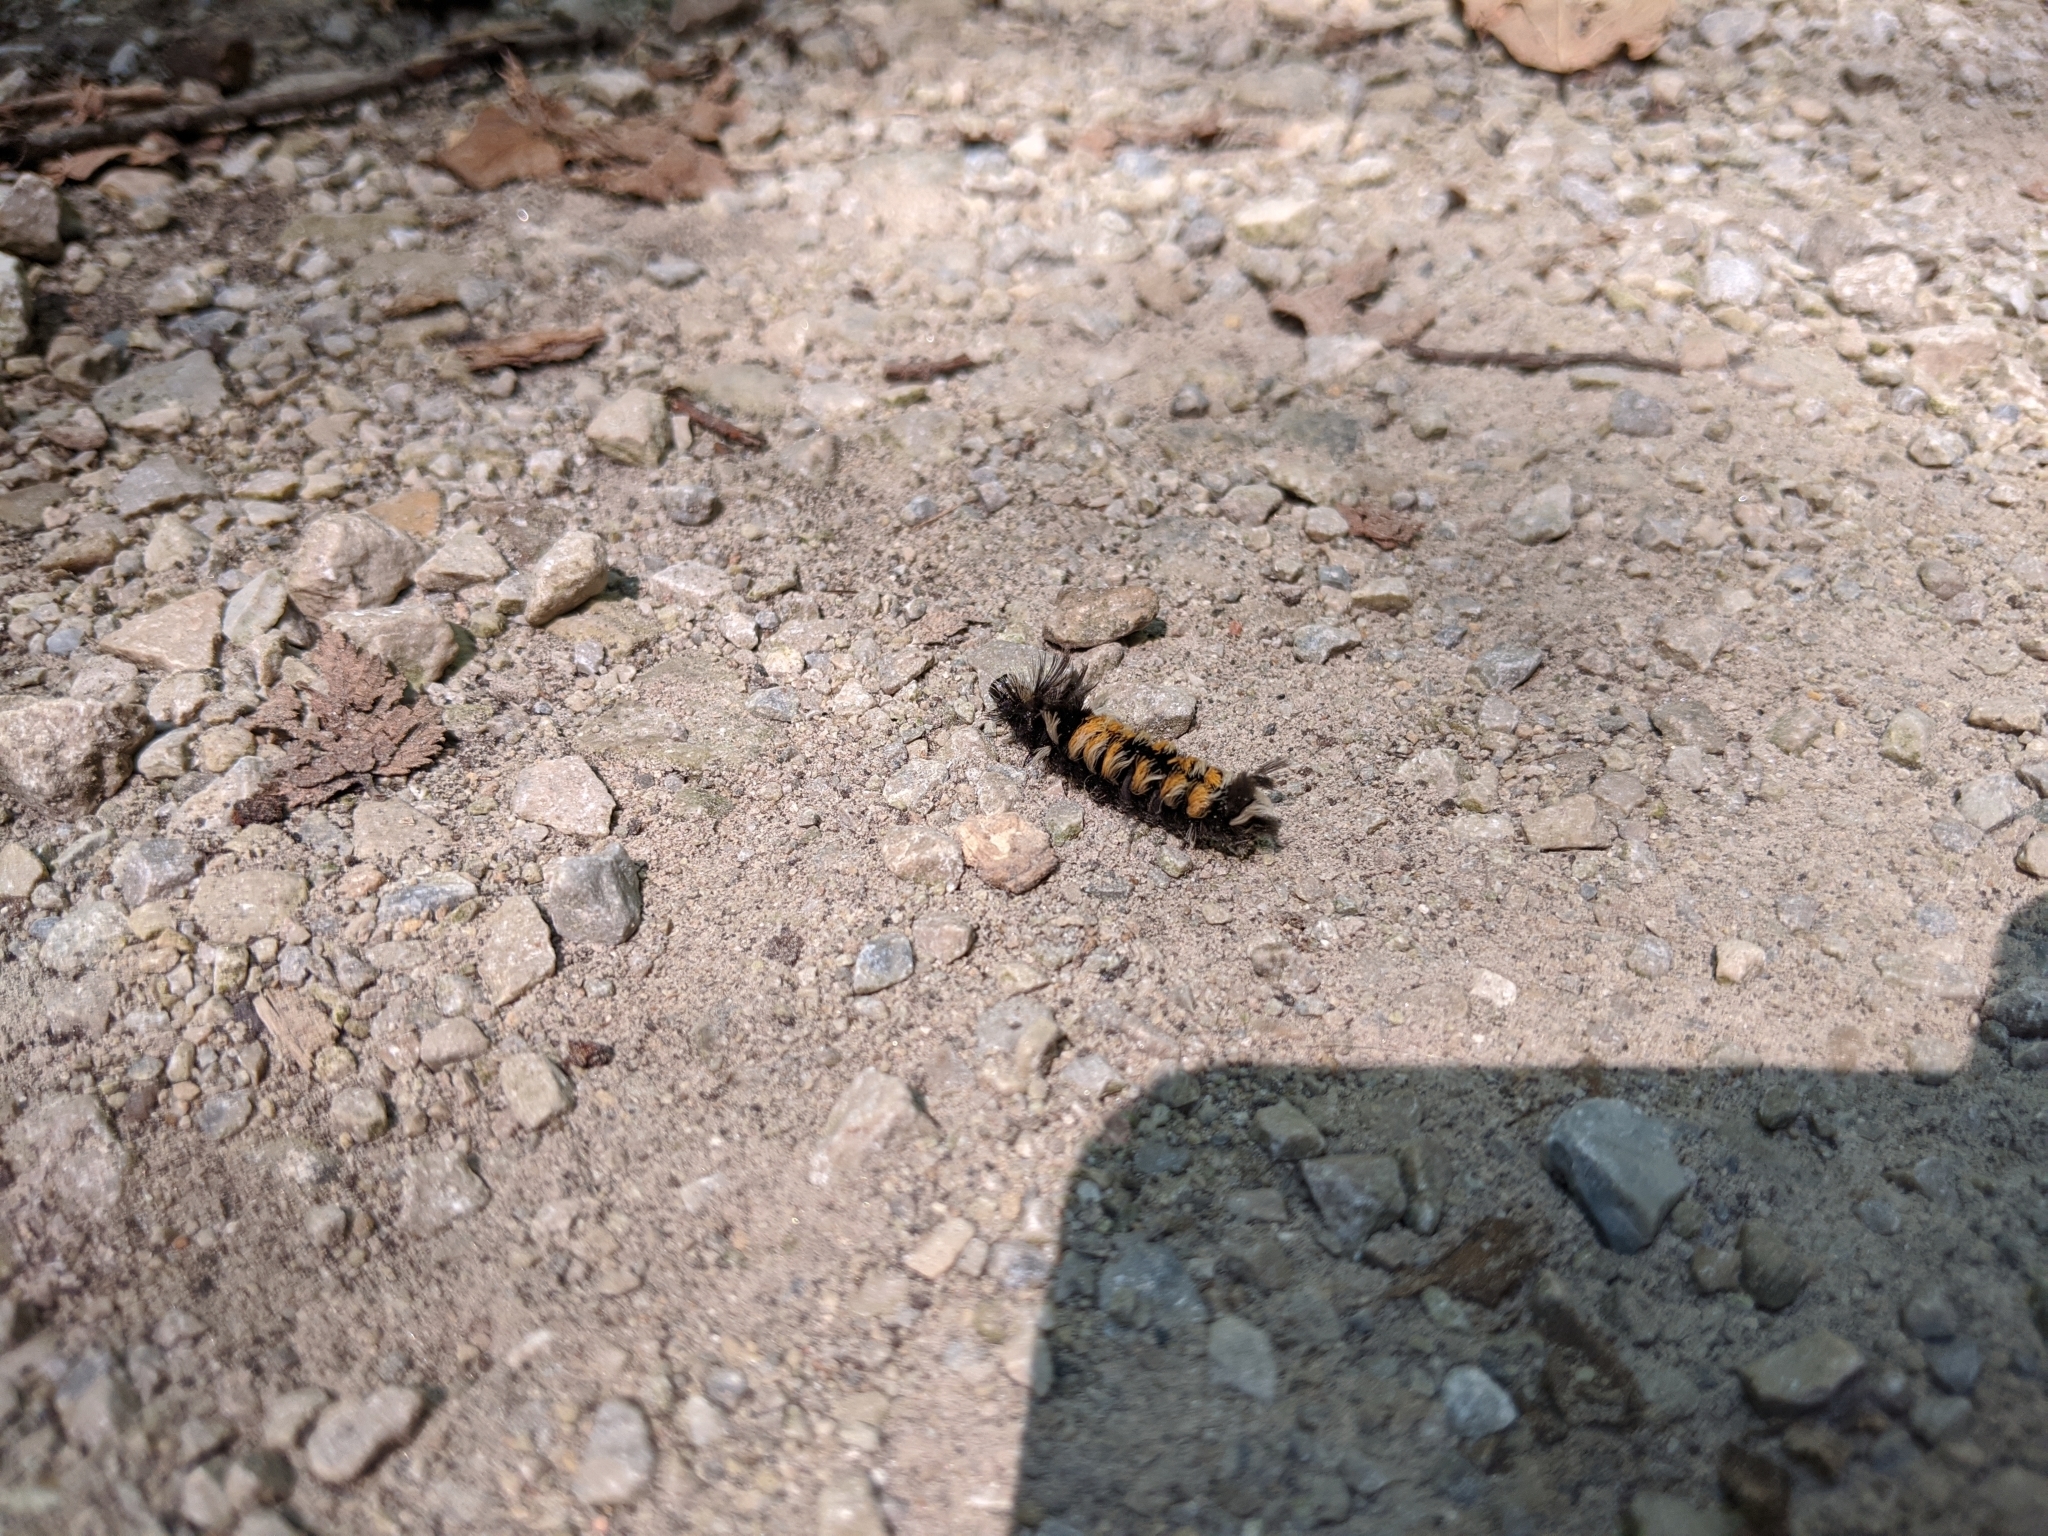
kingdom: Animalia
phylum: Arthropoda
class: Insecta
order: Lepidoptera
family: Erebidae
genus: Euchaetes
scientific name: Euchaetes egle
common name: Milkweed tussock moth
